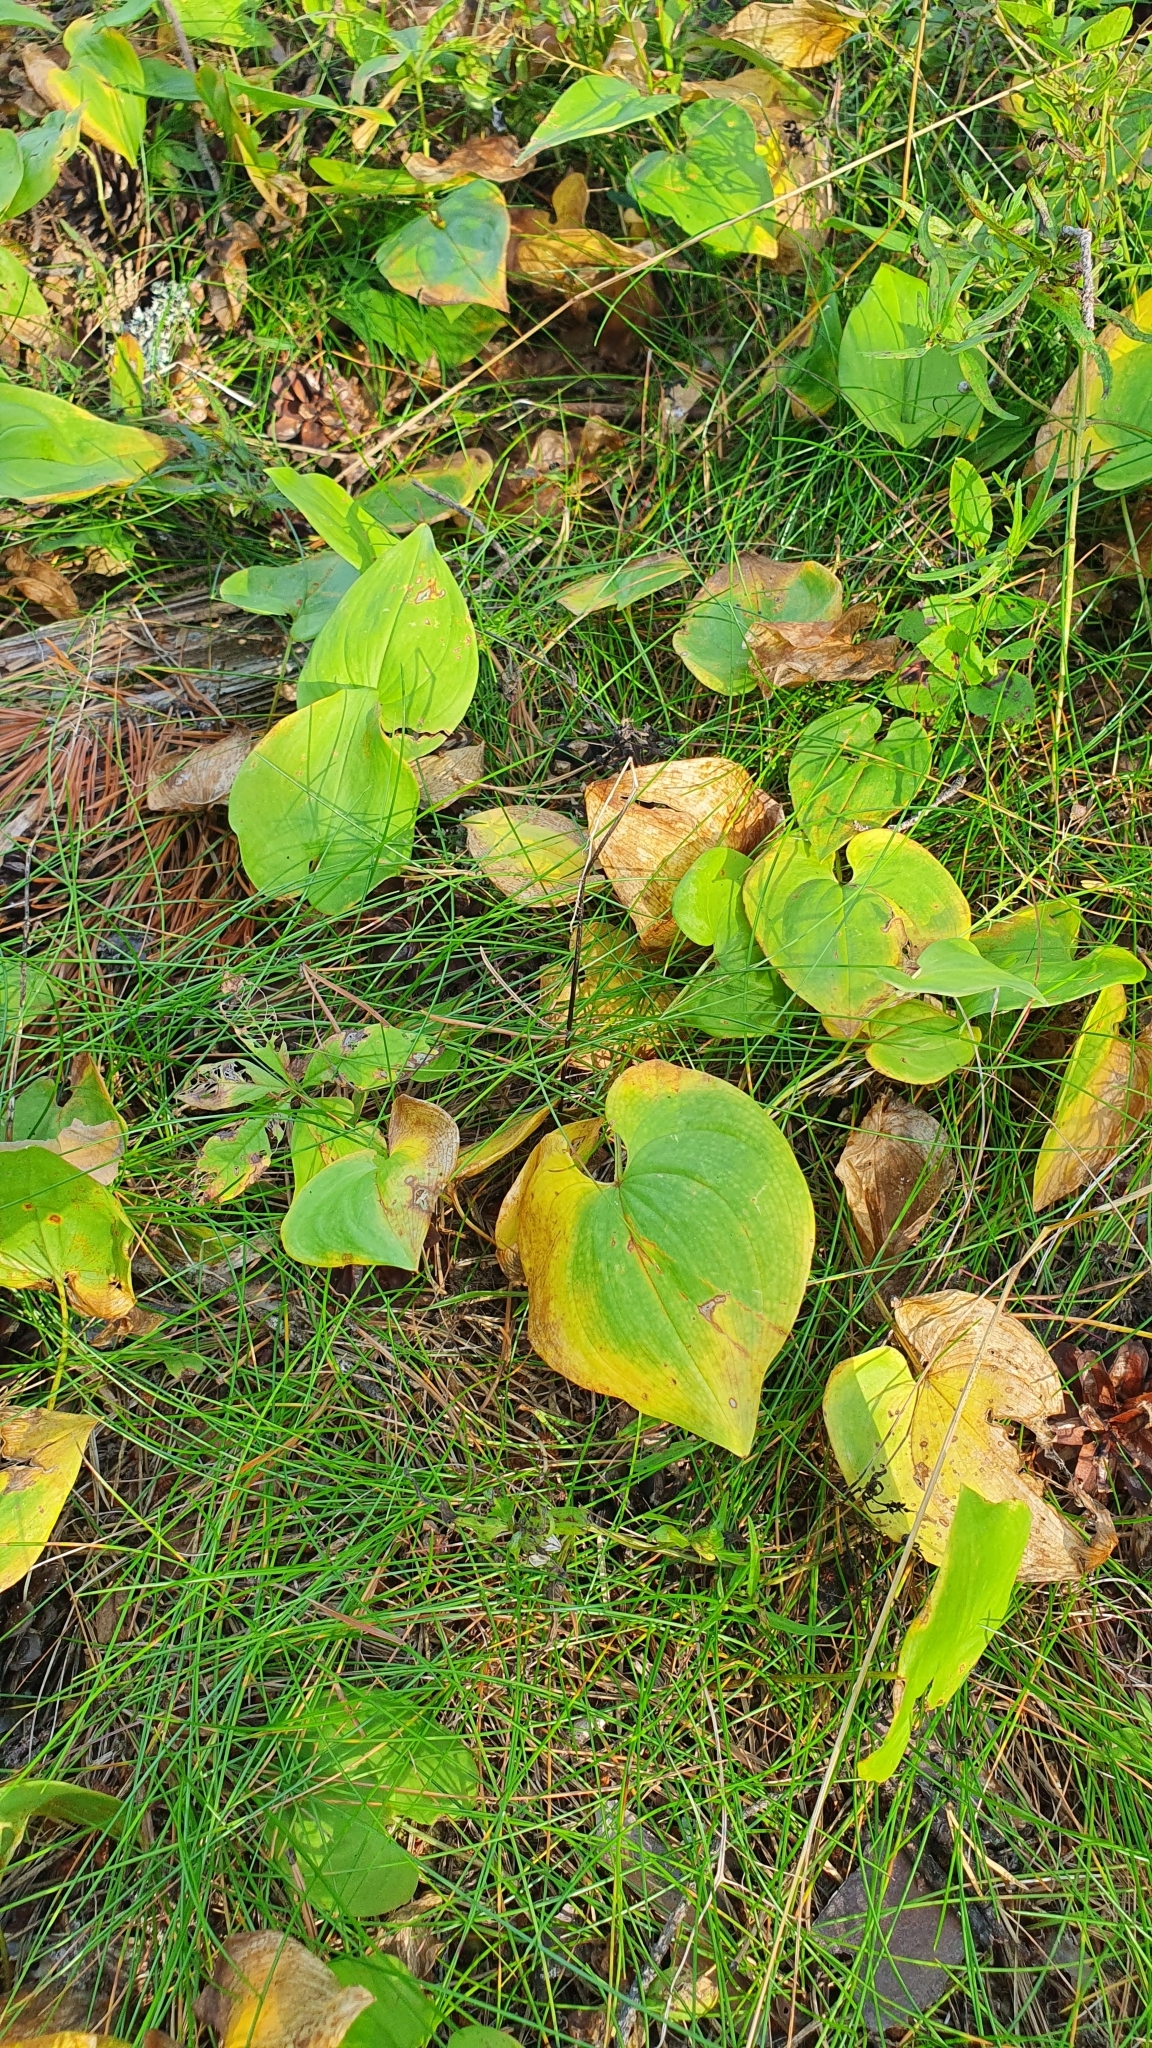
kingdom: Plantae
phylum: Tracheophyta
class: Liliopsida
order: Asparagales
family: Asparagaceae
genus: Maianthemum
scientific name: Maianthemum bifolium
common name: May lily
